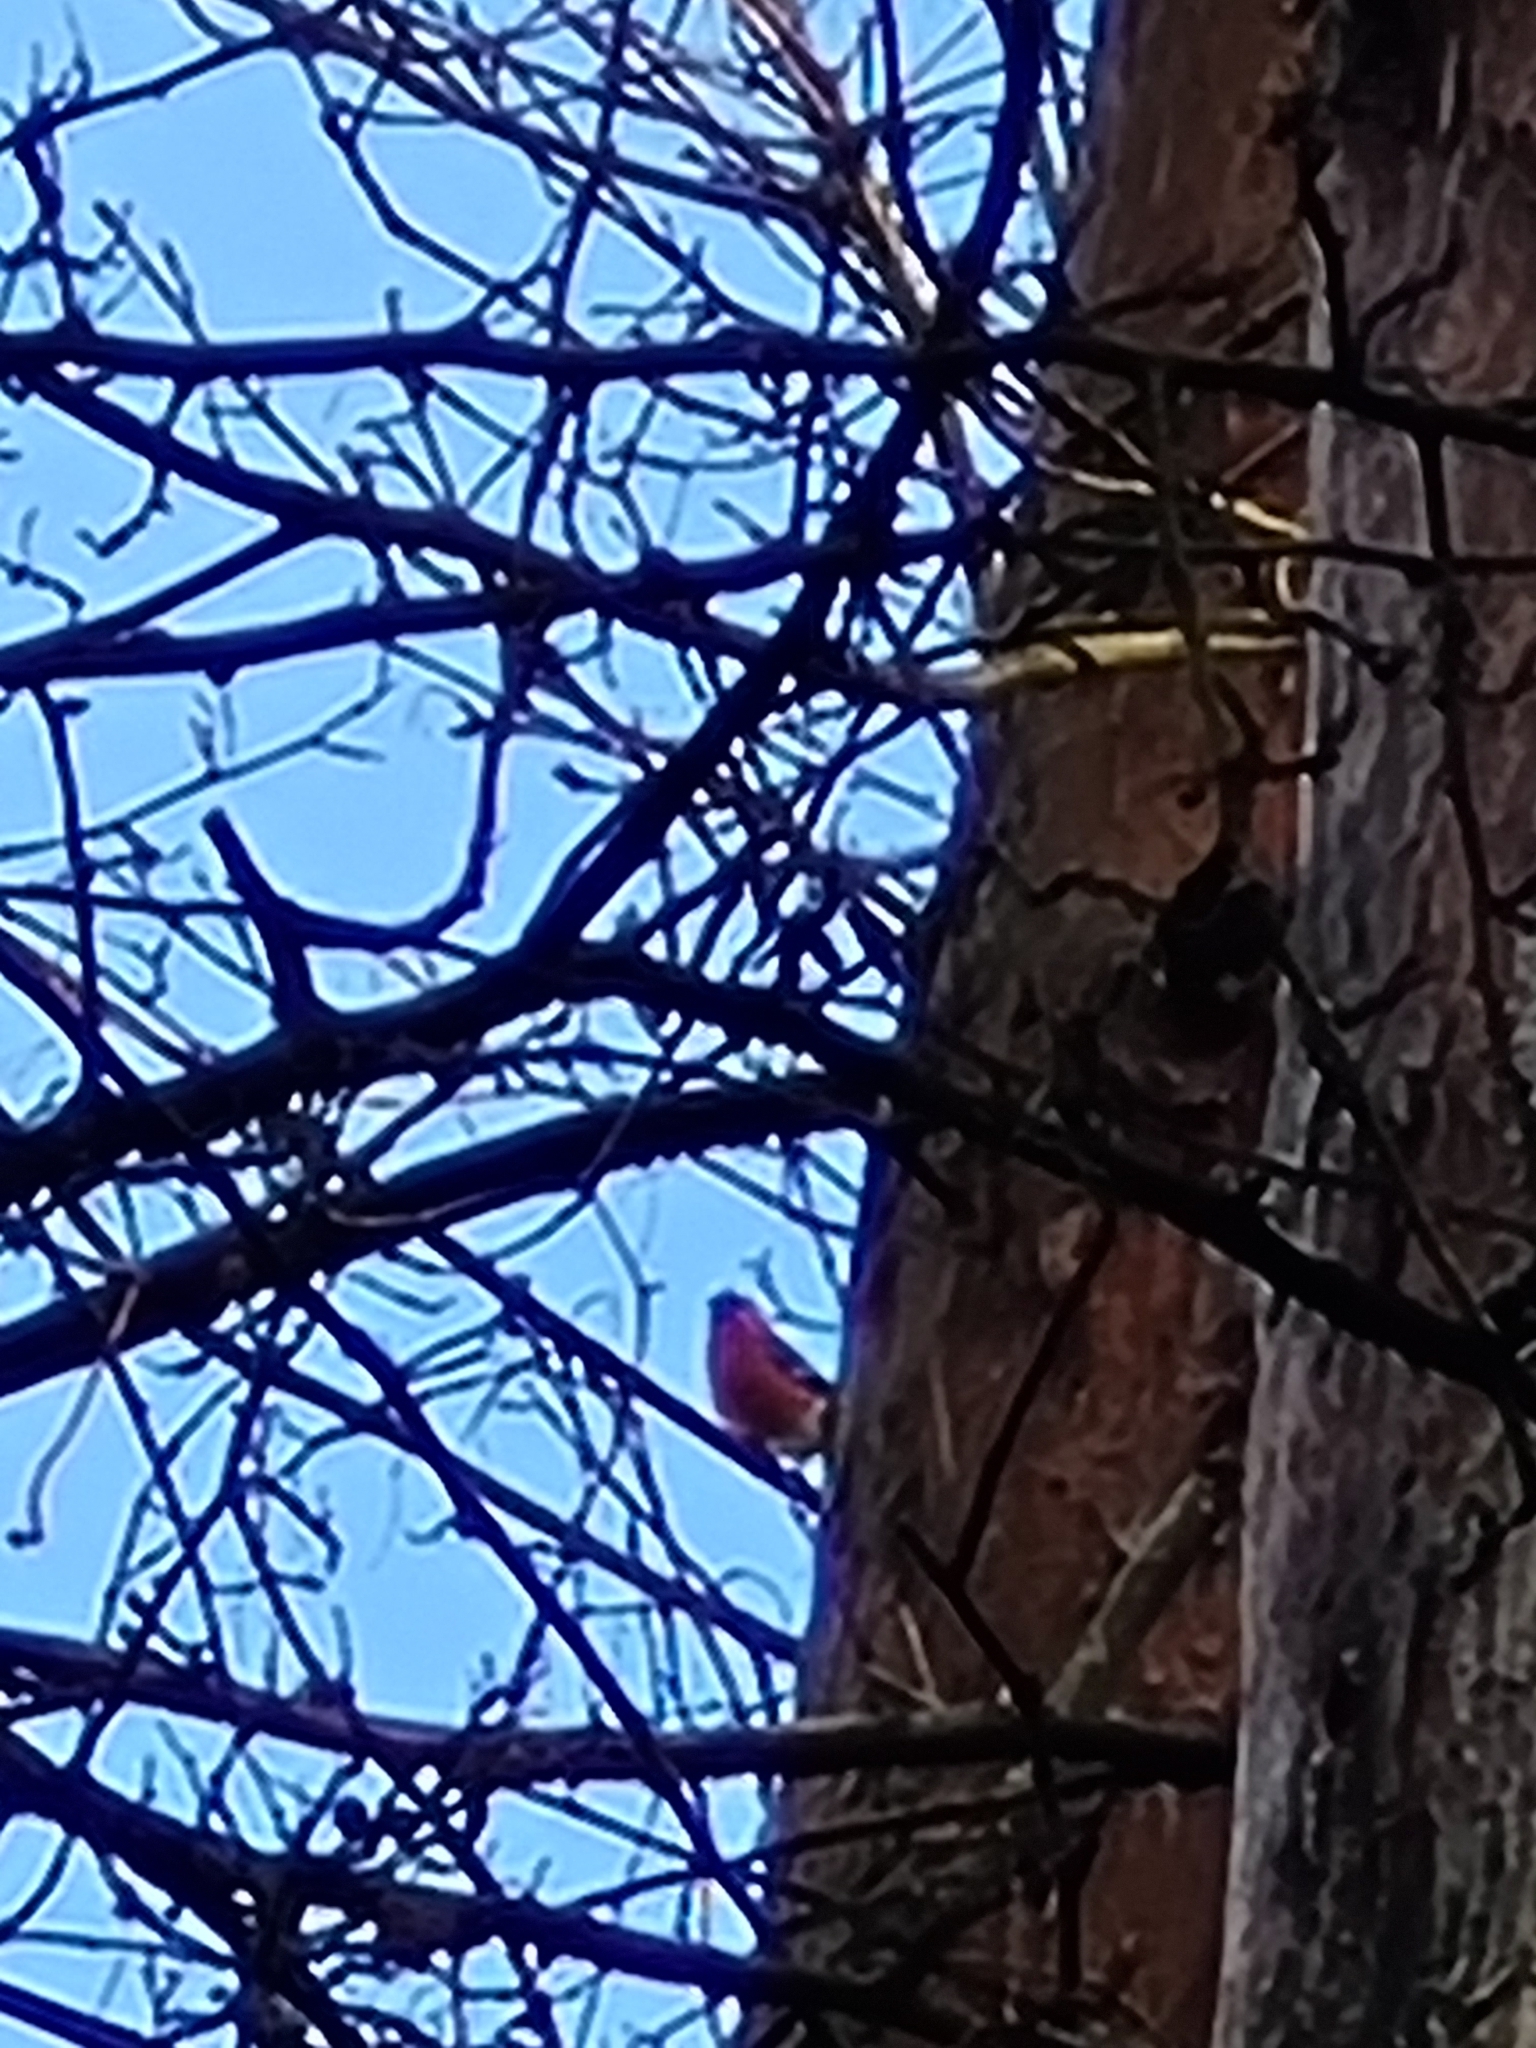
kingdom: Animalia
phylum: Chordata
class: Aves
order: Passeriformes
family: Fringillidae
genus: Pyrrhula
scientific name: Pyrrhula pyrrhula
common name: Eurasian bullfinch
